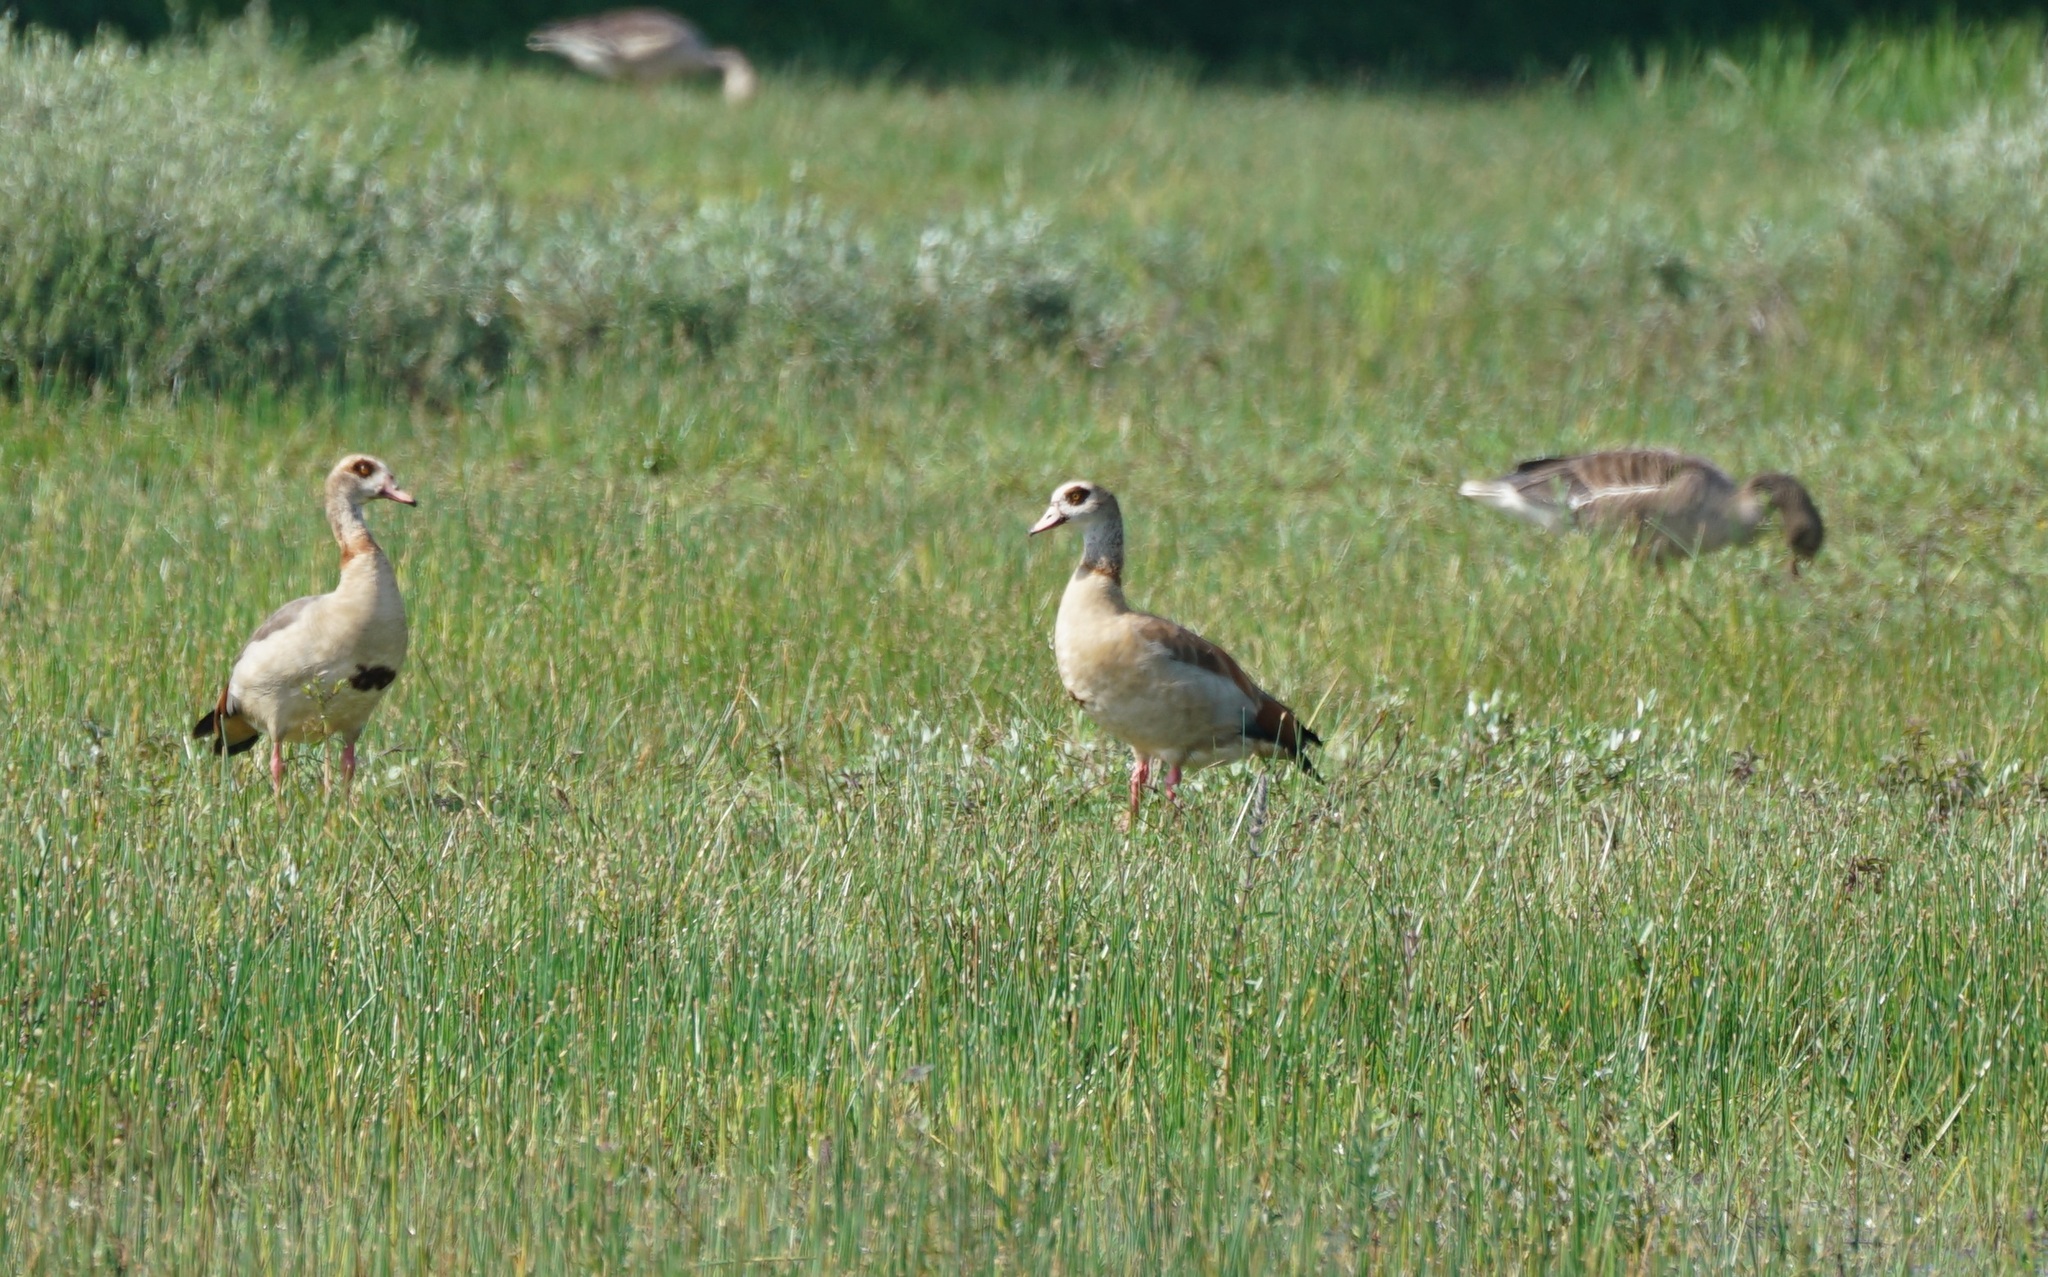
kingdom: Animalia
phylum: Chordata
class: Aves
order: Anseriformes
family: Anatidae
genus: Alopochen
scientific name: Alopochen aegyptiaca
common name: Egyptian goose
